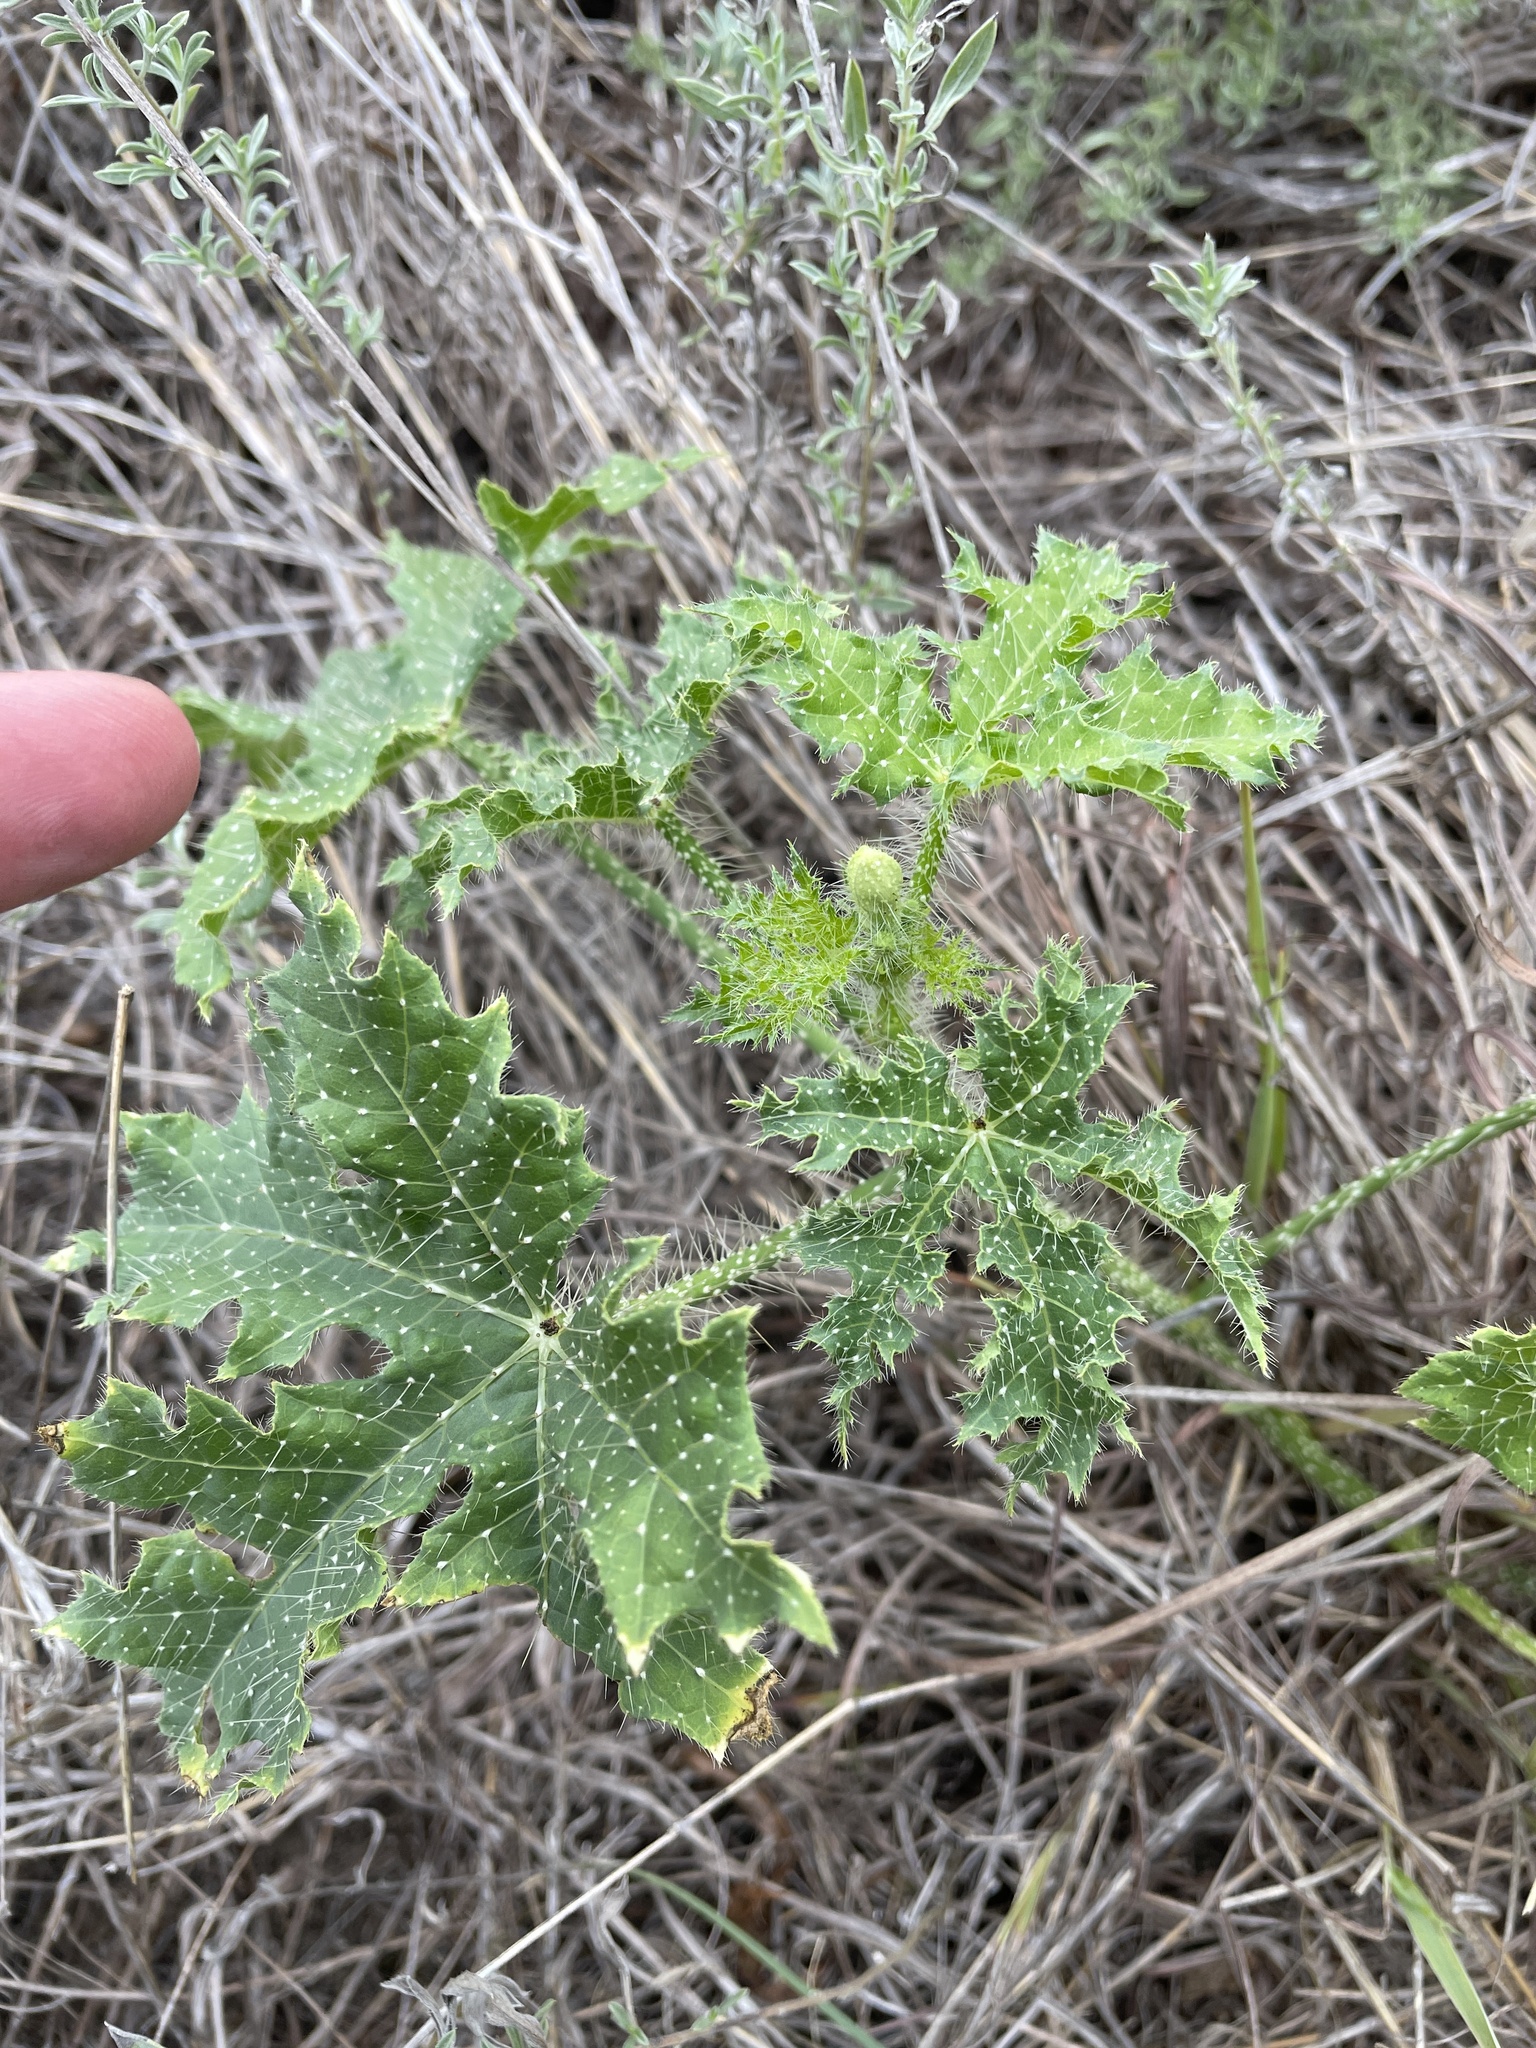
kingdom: Plantae
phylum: Tracheophyta
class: Magnoliopsida
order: Malpighiales
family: Euphorbiaceae
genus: Cnidoscolus
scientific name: Cnidoscolus texanus
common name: Texas bull-nettle
